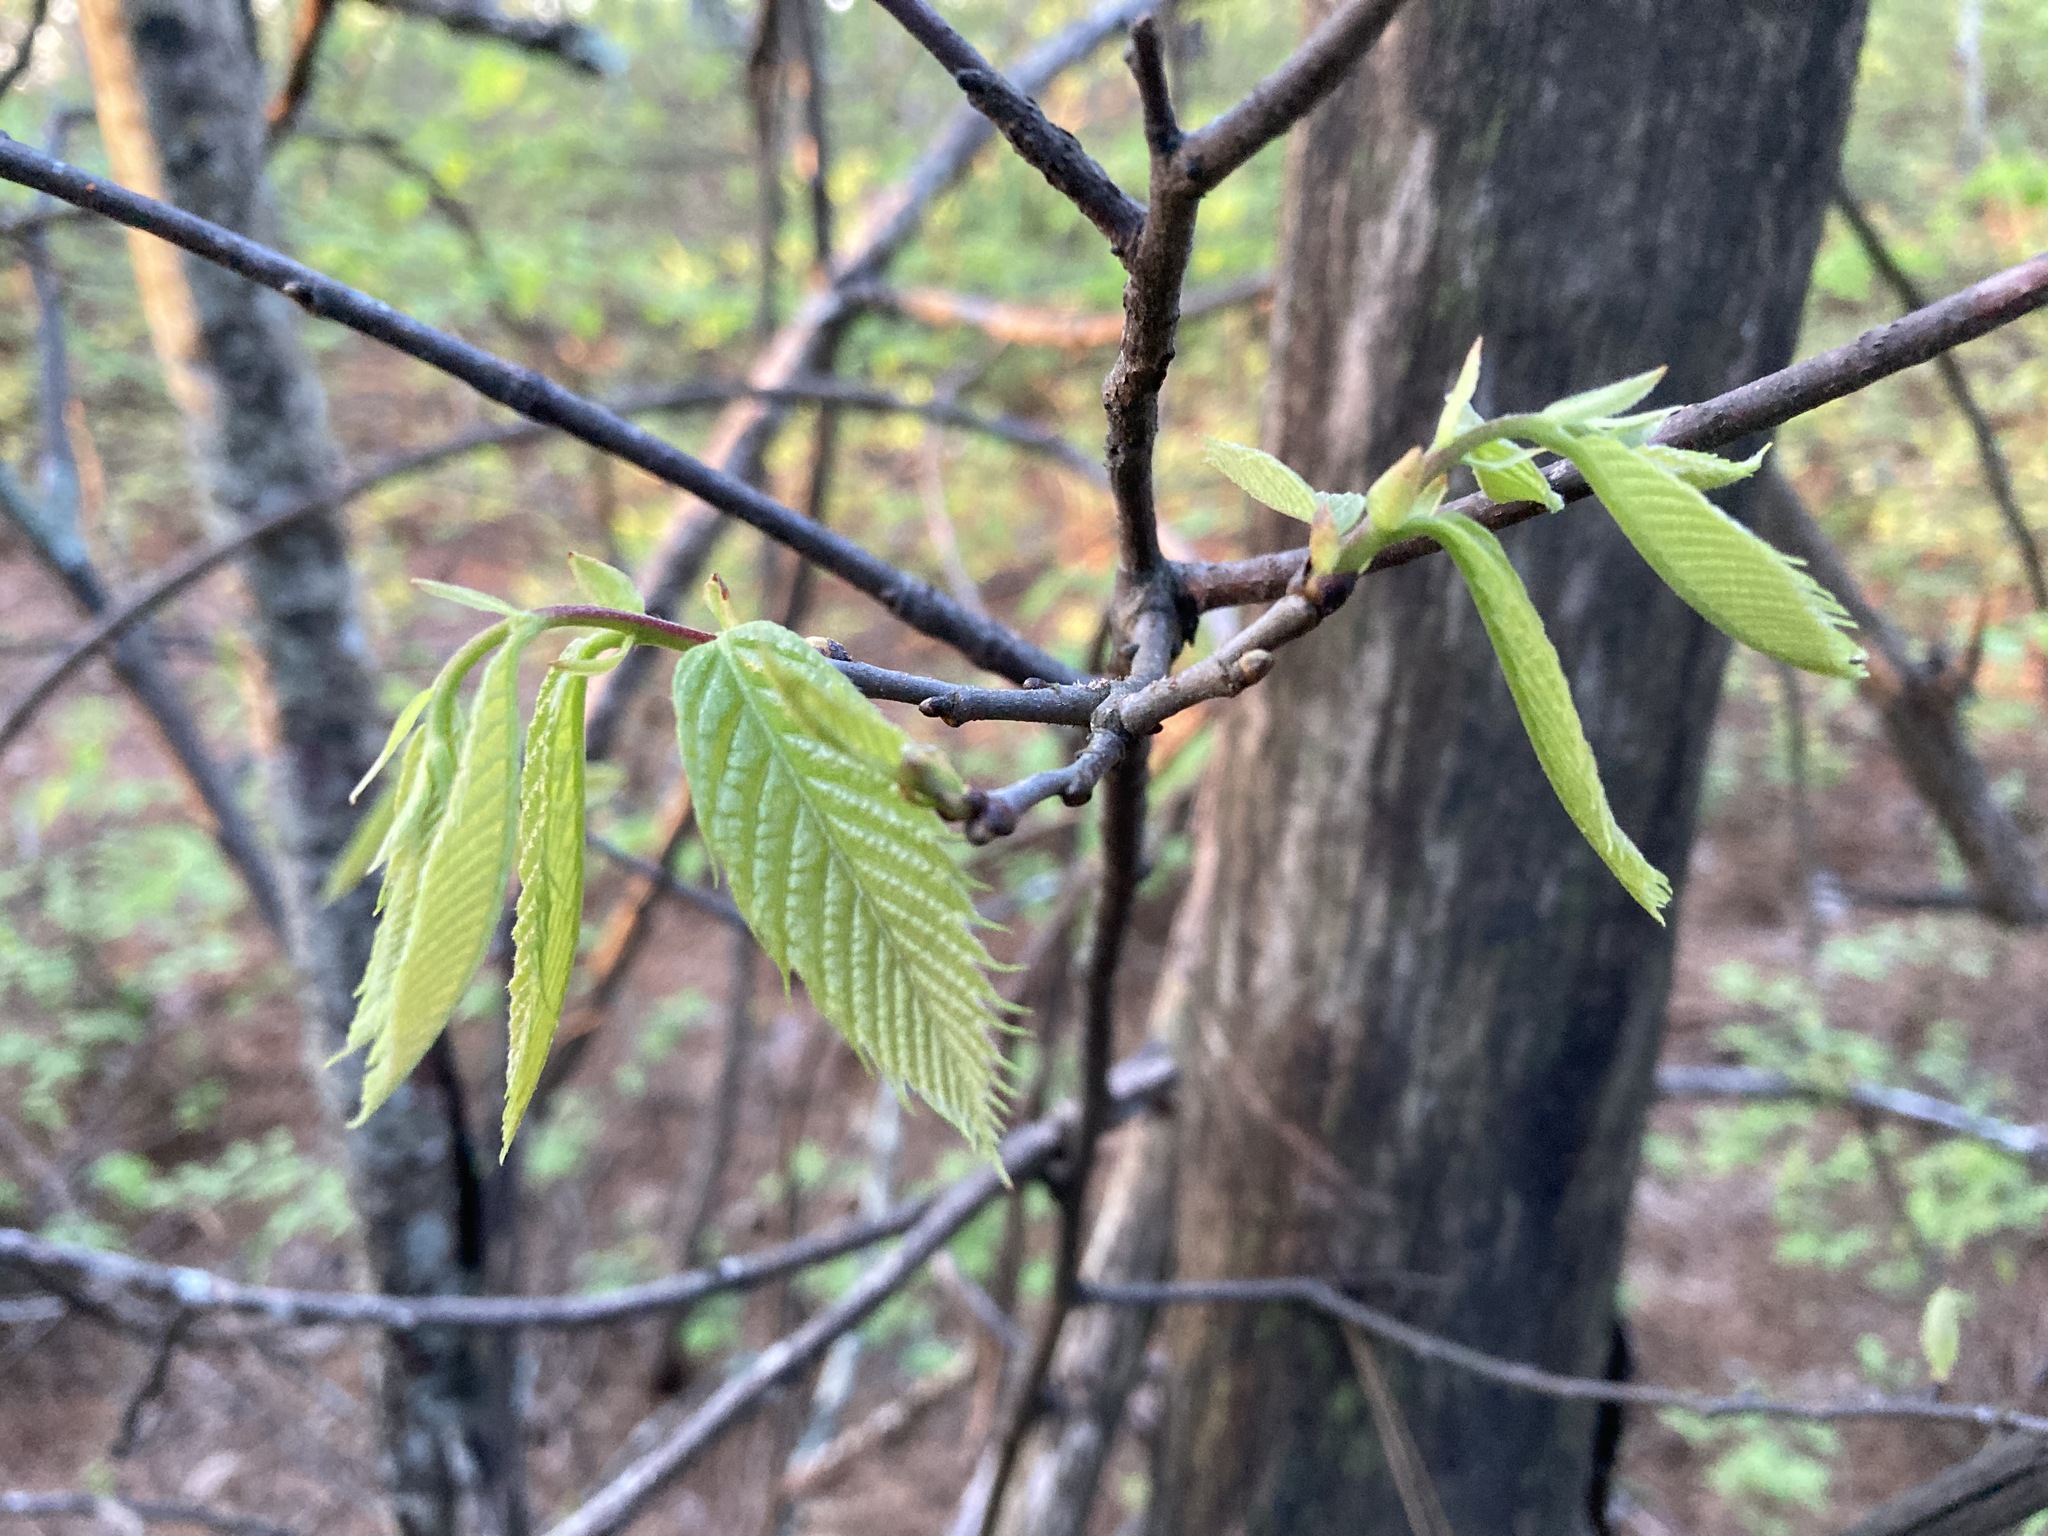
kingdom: Plantae
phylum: Tracheophyta
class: Magnoliopsida
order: Fagales
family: Fagaceae
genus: Castanea
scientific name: Castanea ozarkensis
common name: Ozark chinkapin
